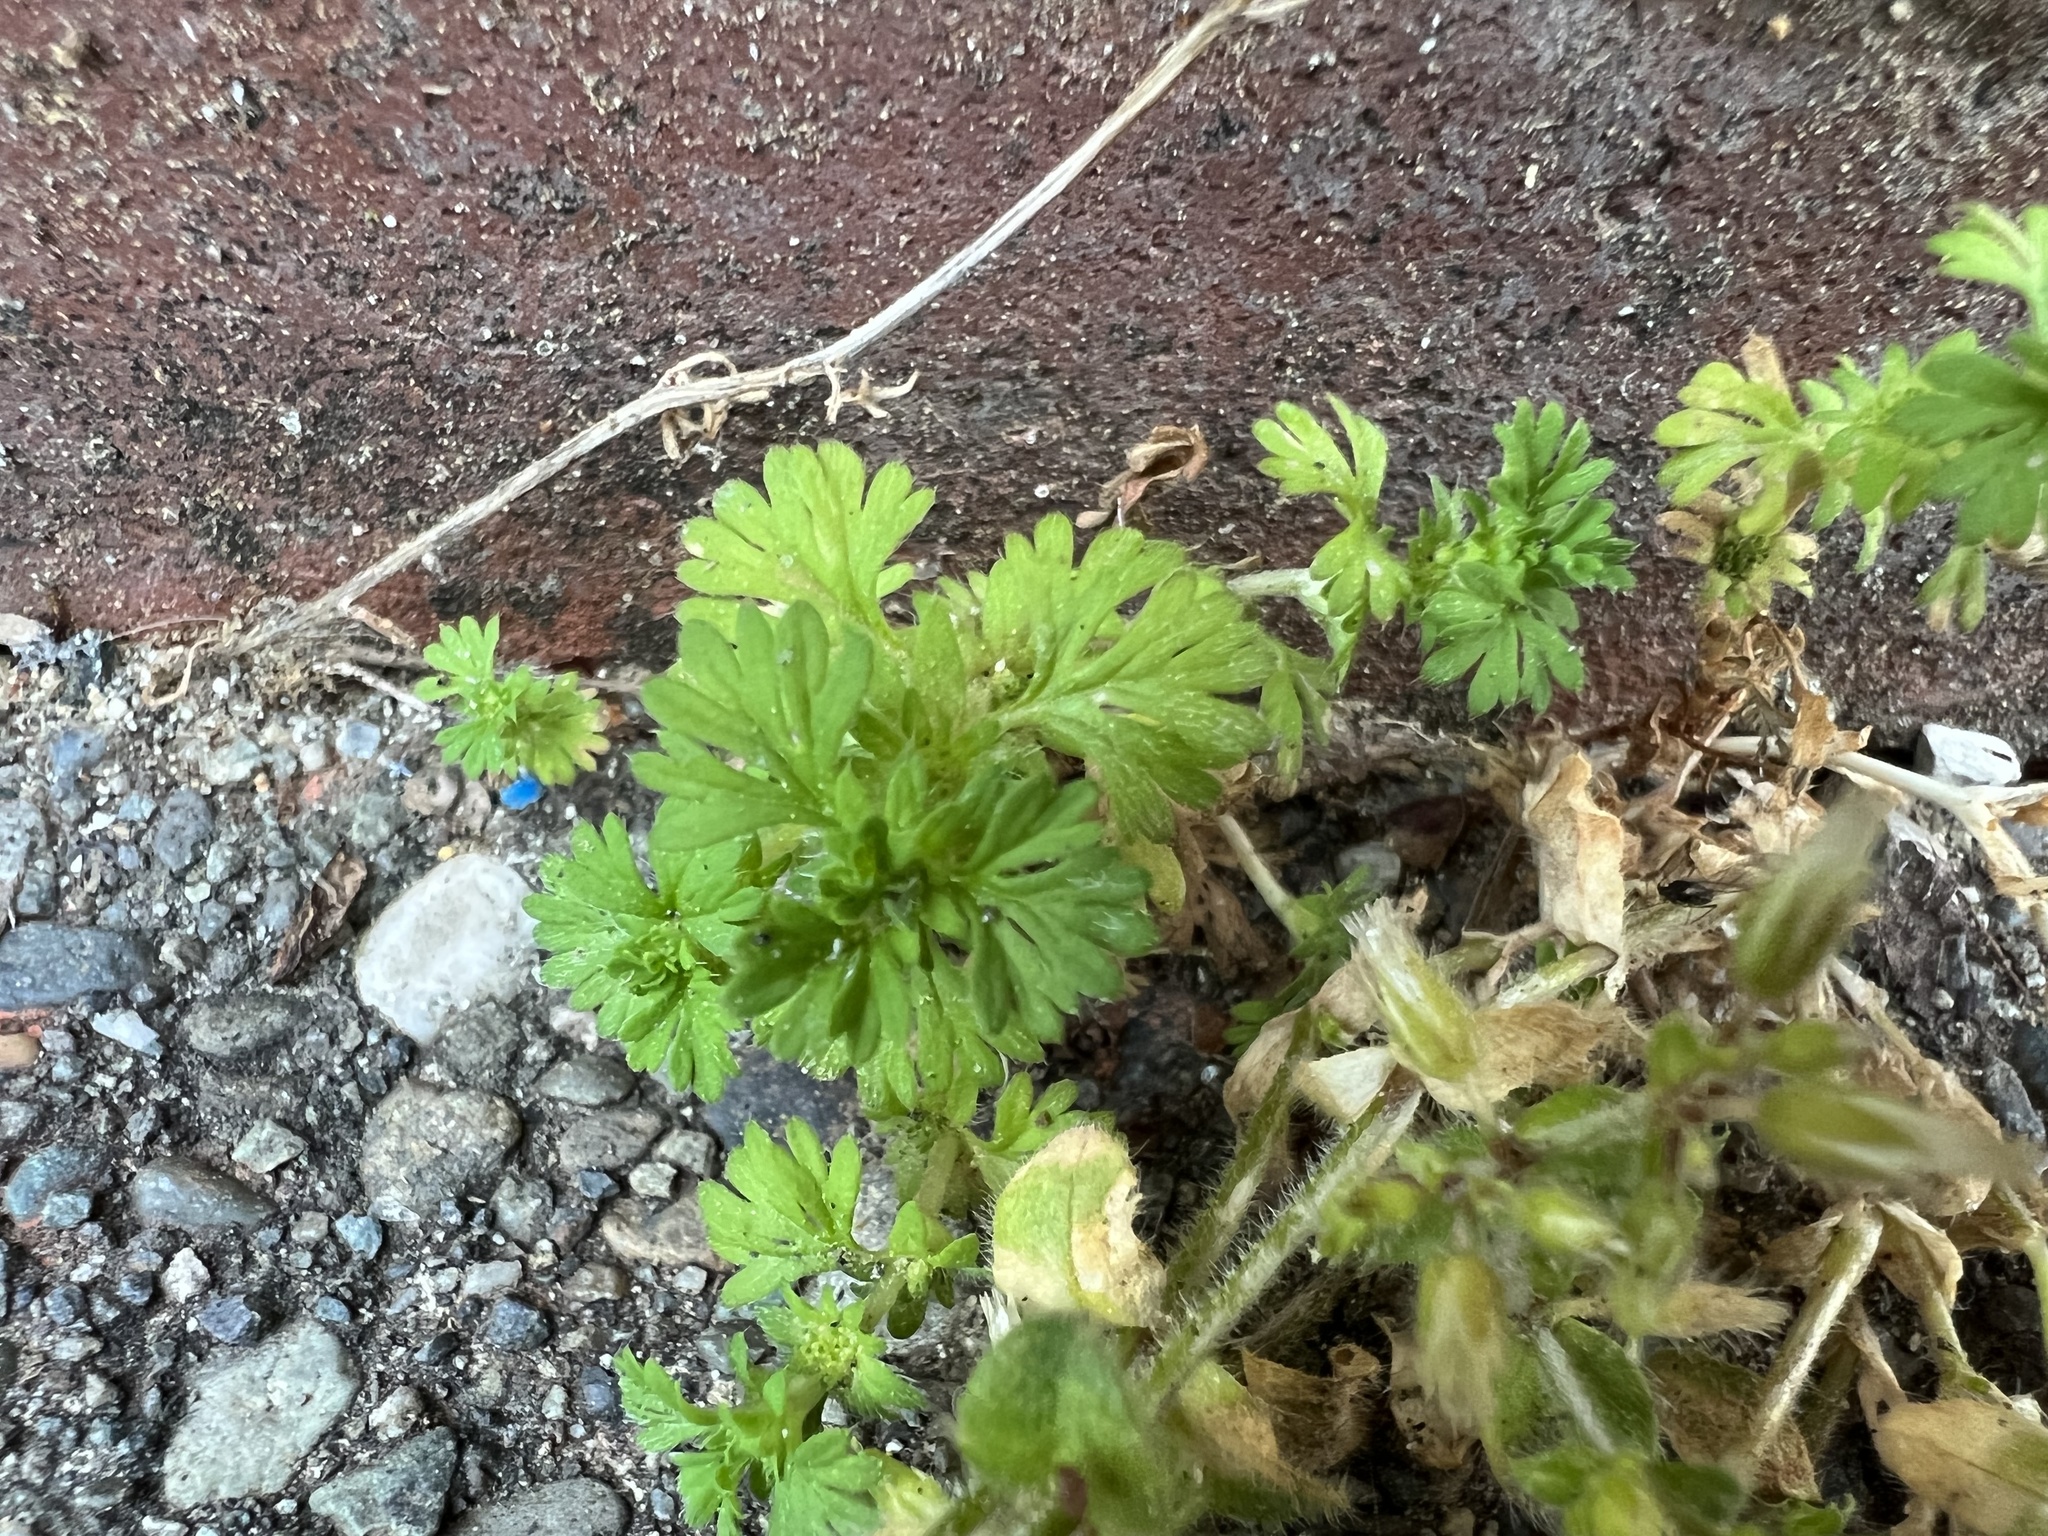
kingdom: Plantae
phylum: Tracheophyta
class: Magnoliopsida
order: Geraniales
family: Geraniaceae
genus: Geranium
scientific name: Geranium molle
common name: Dove's-foot crane's-bill
